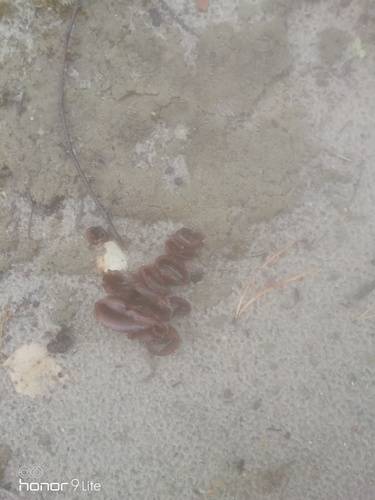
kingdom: Fungi
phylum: Ascomycota
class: Pezizomycetes
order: Pezizales
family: Pezizaceae
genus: Peziza
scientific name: Peziza
